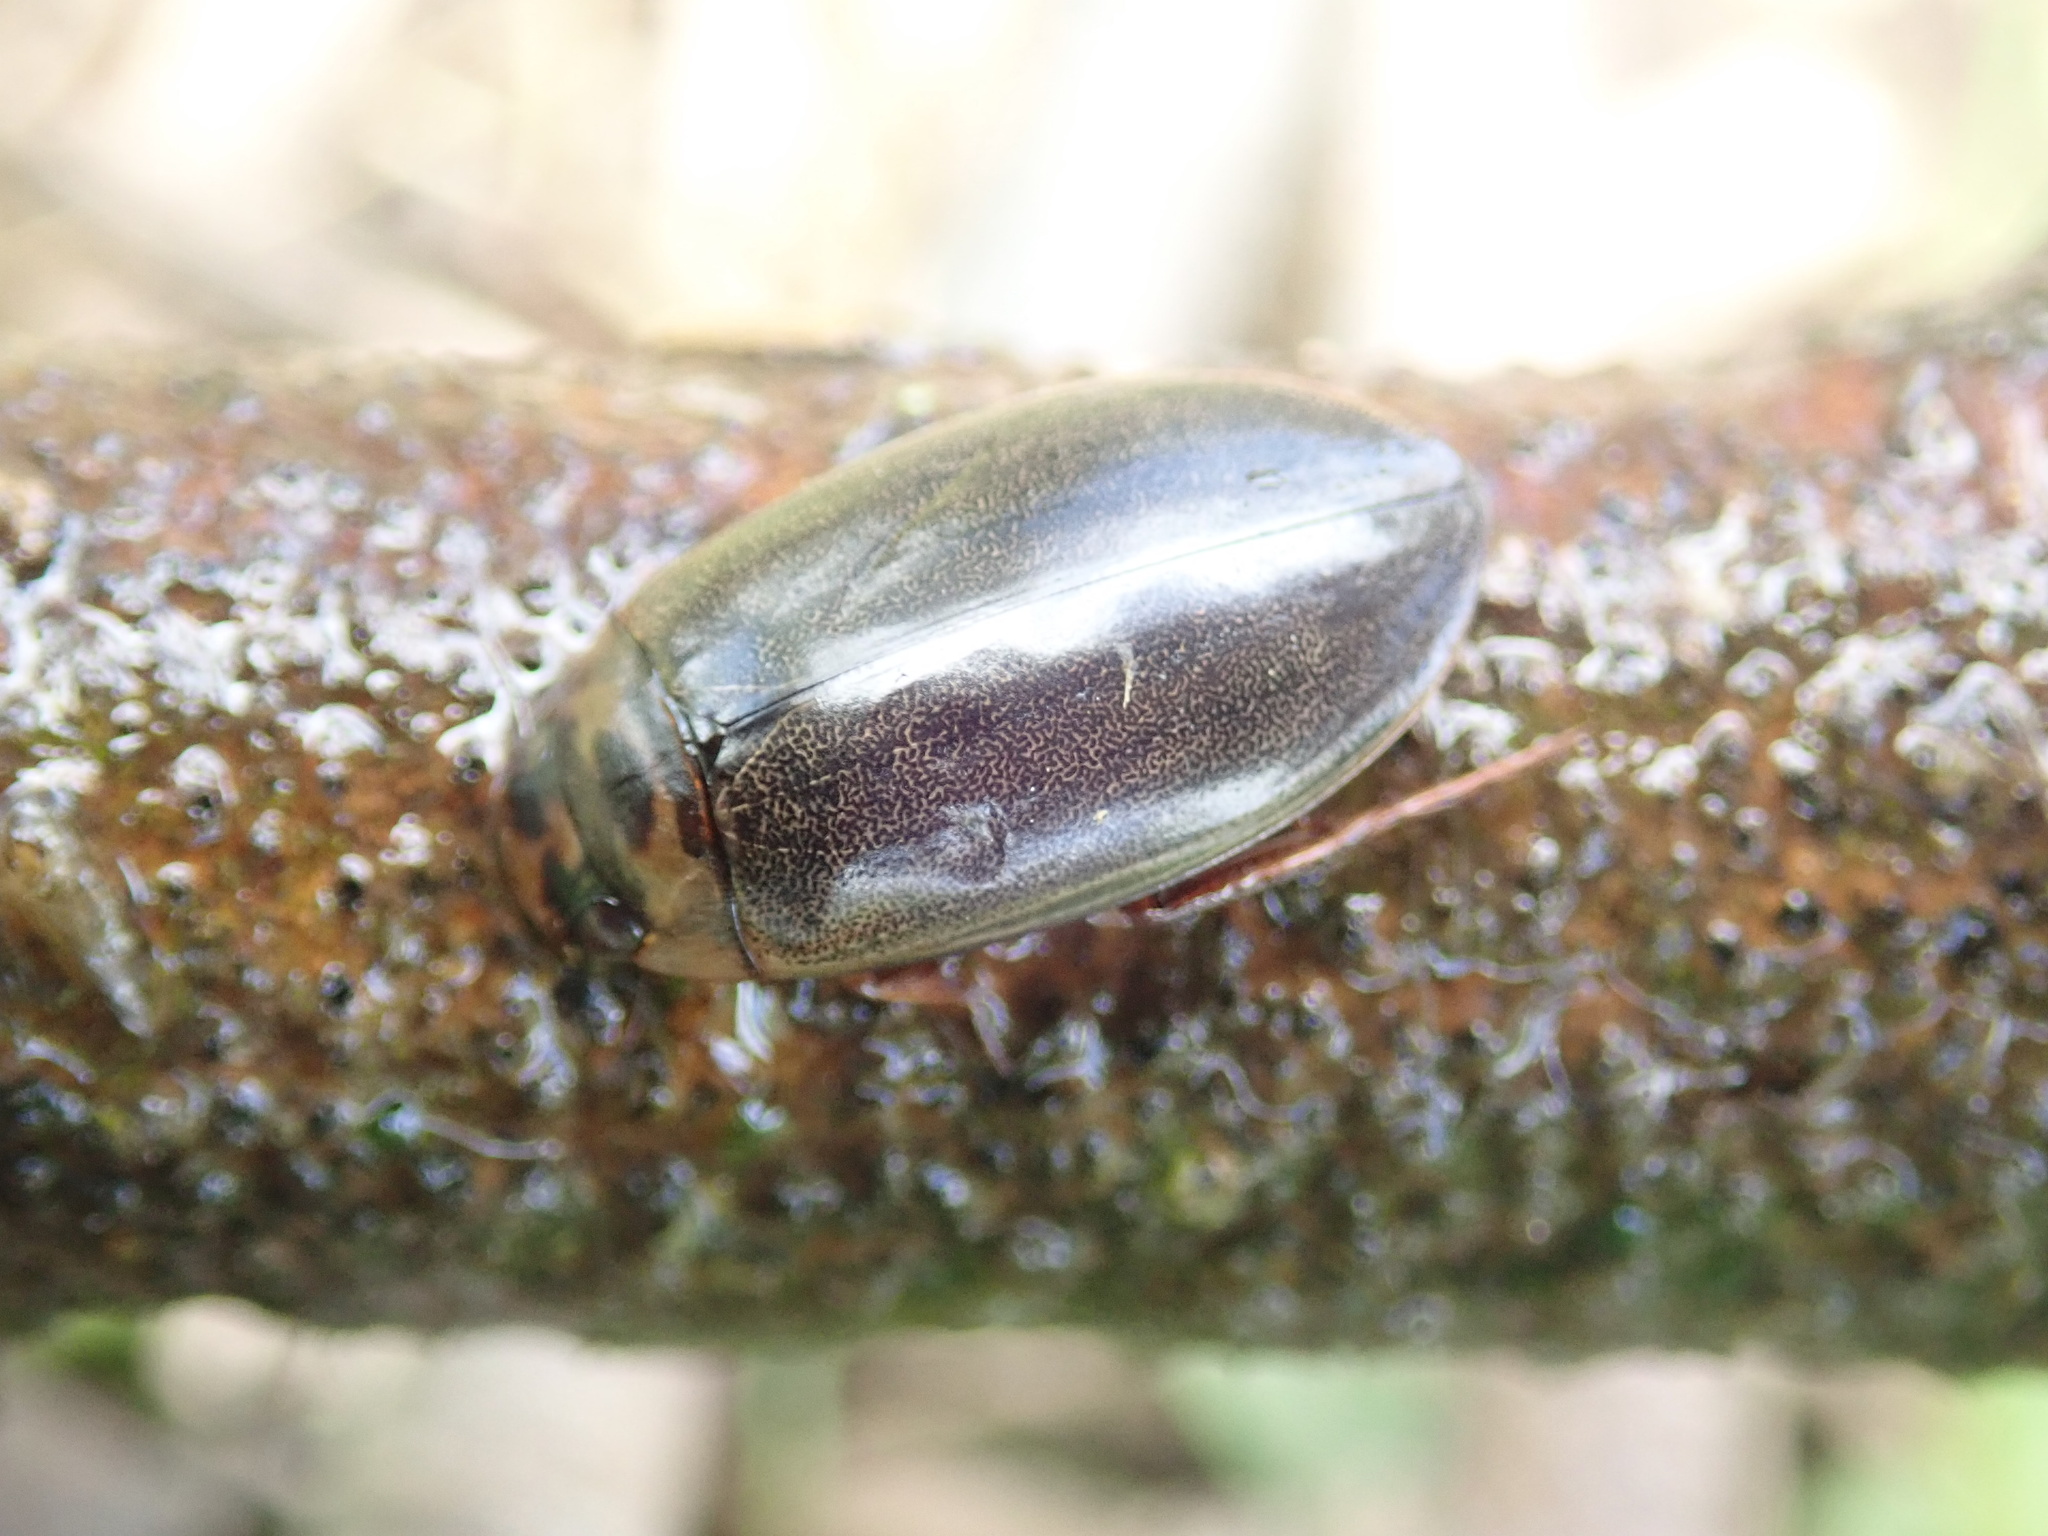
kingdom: Animalia
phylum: Arthropoda
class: Insecta
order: Coleoptera
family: Dytiscidae
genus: Rhantus
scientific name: Rhantus suturalis
